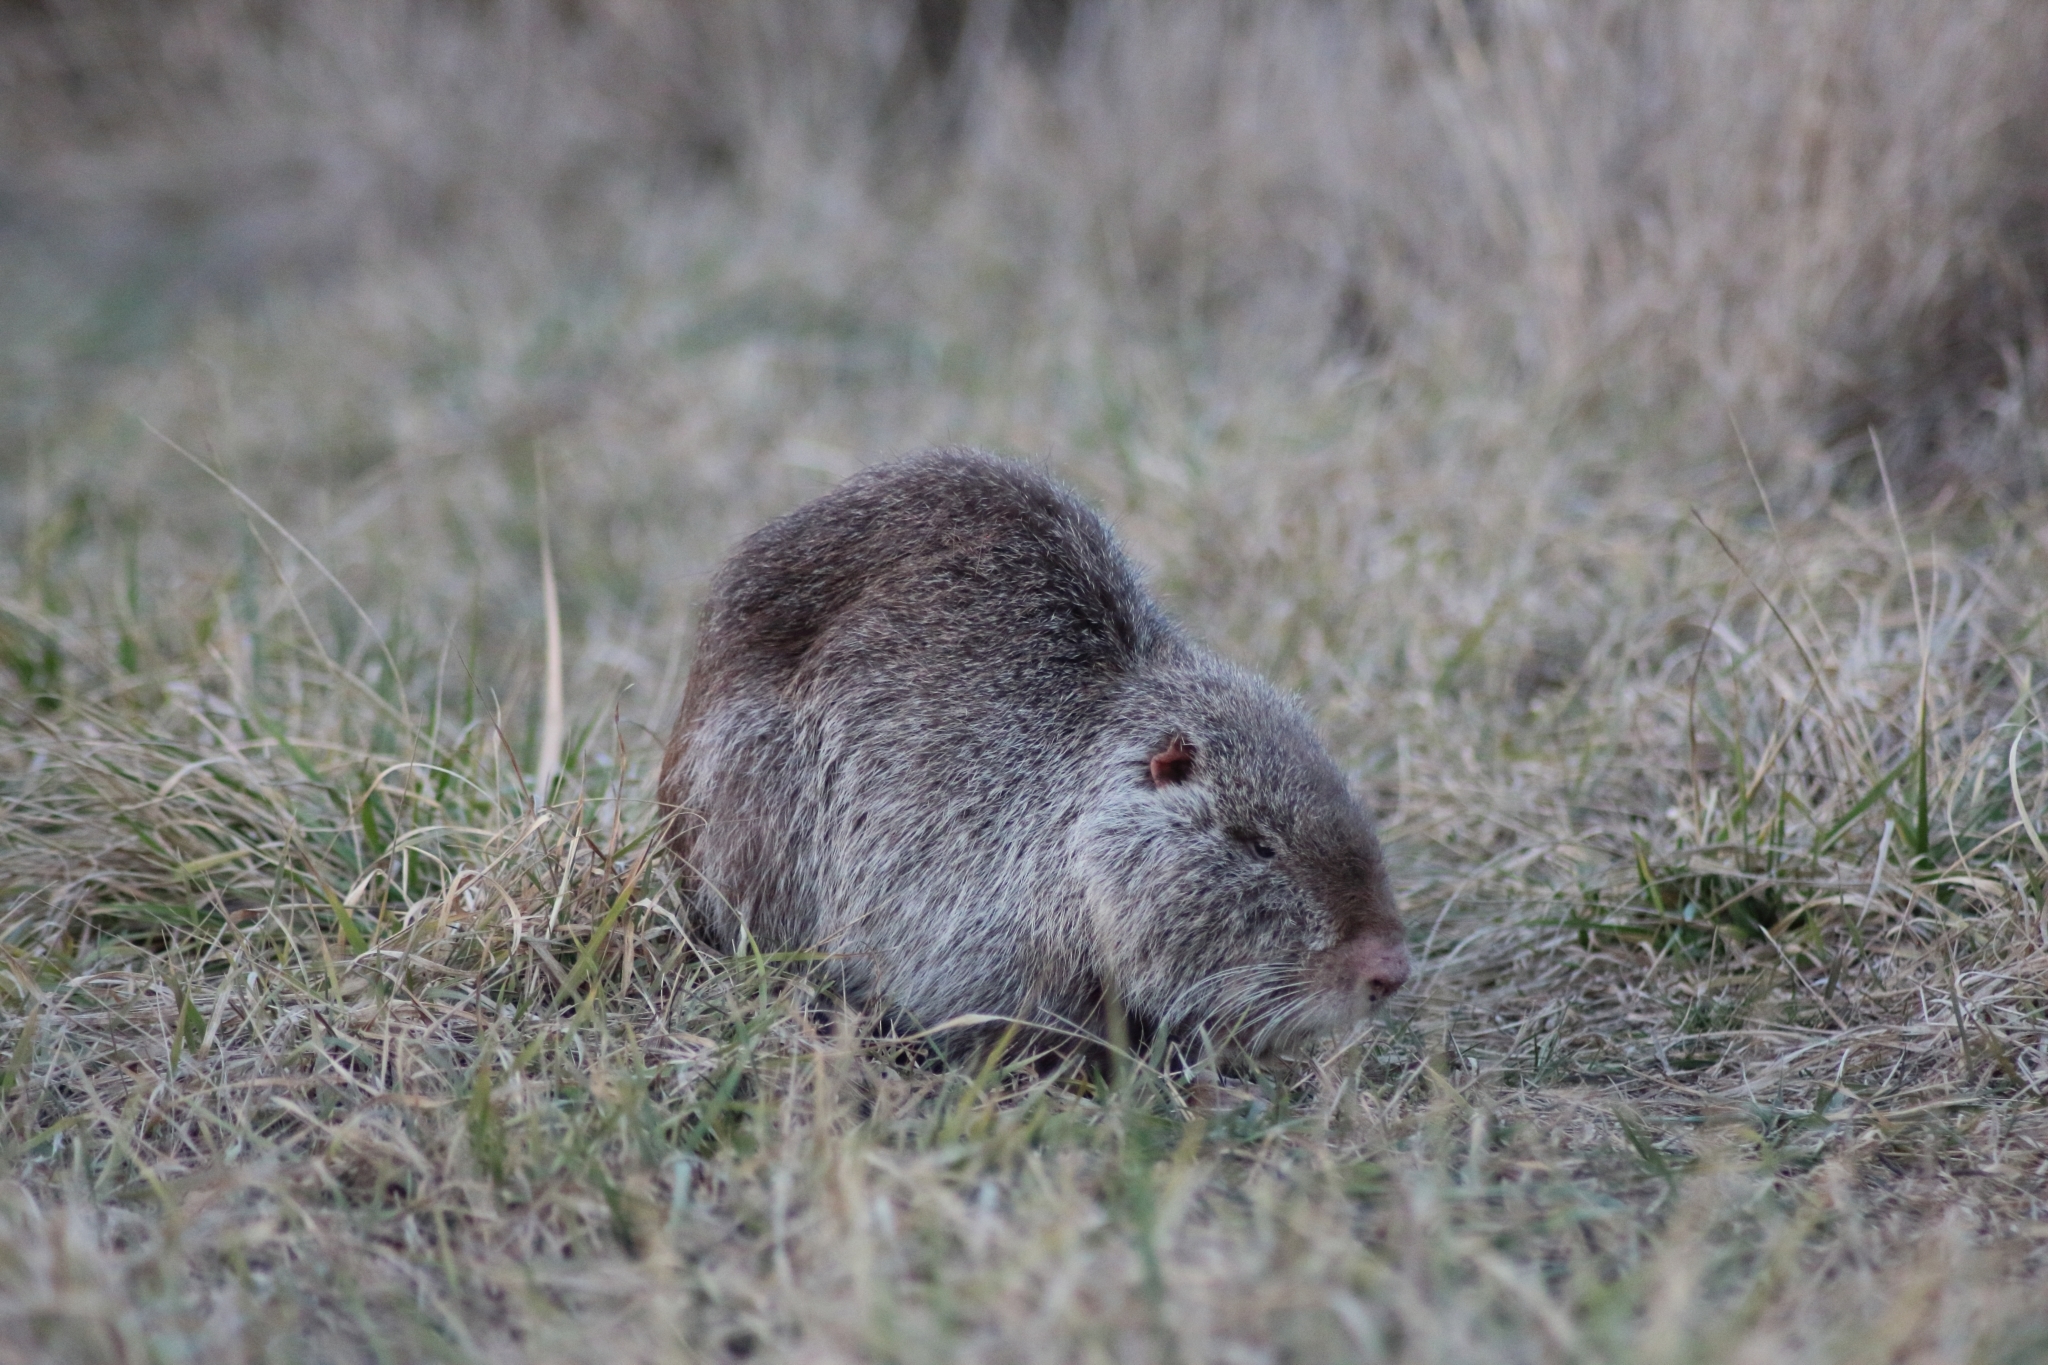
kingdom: Animalia
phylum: Chordata
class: Mammalia
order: Rodentia
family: Myocastoridae
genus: Myocastor
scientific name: Myocastor coypus
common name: Coypu
